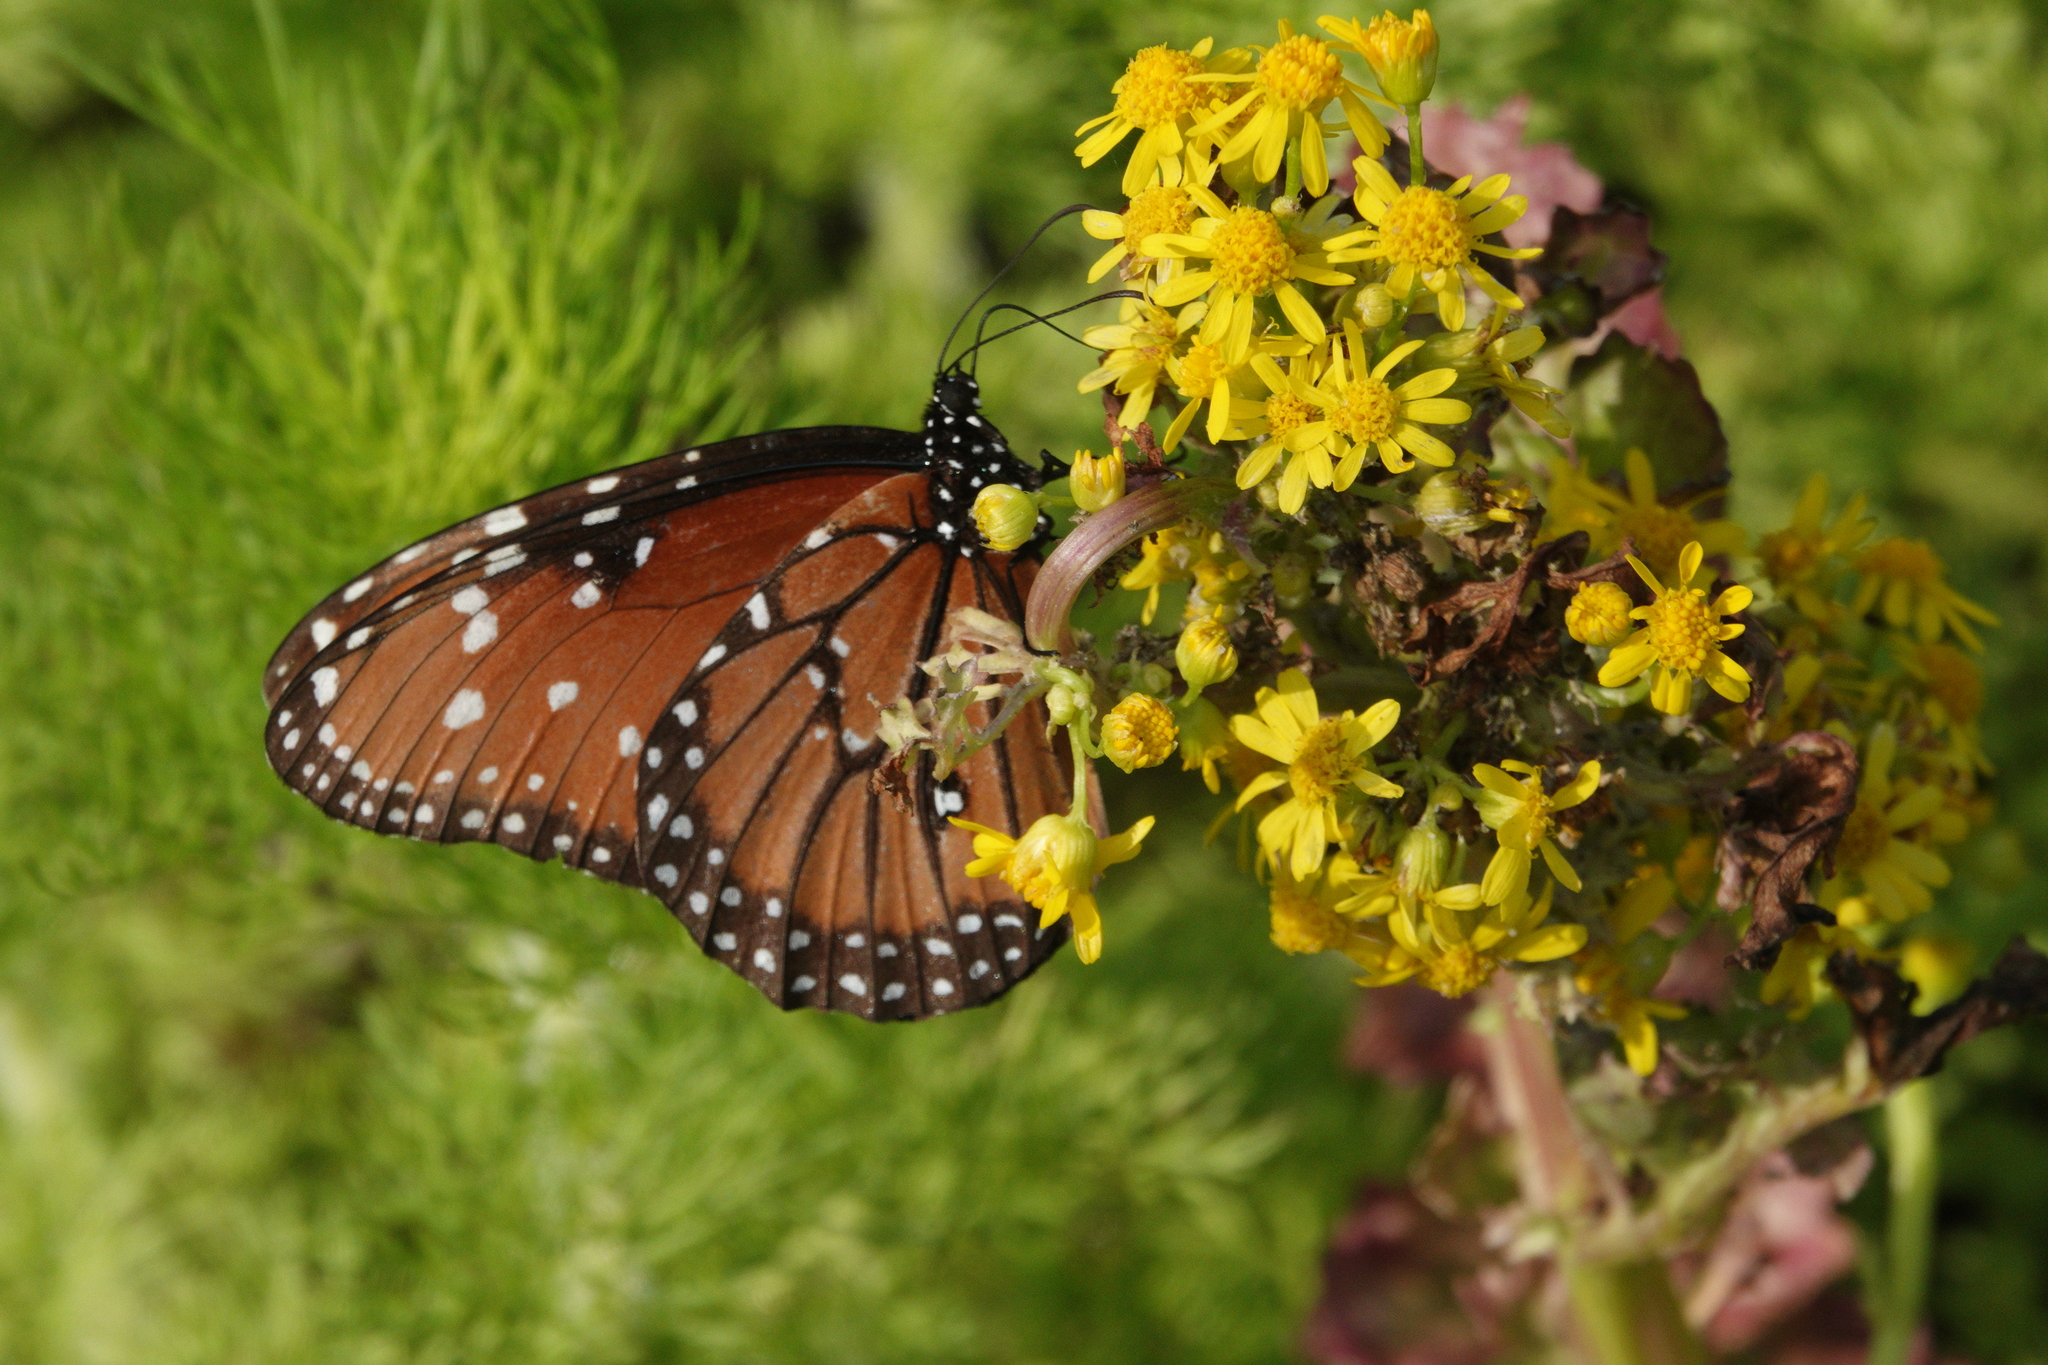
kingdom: Animalia
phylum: Arthropoda
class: Insecta
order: Lepidoptera
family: Nymphalidae
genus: Danaus
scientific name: Danaus gilippus
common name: Queen
